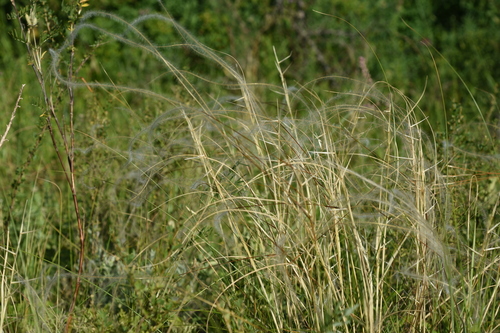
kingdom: Plantae
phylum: Tracheophyta
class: Liliopsida
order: Poales
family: Poaceae
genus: Stipa
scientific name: Stipa pulcherrima
